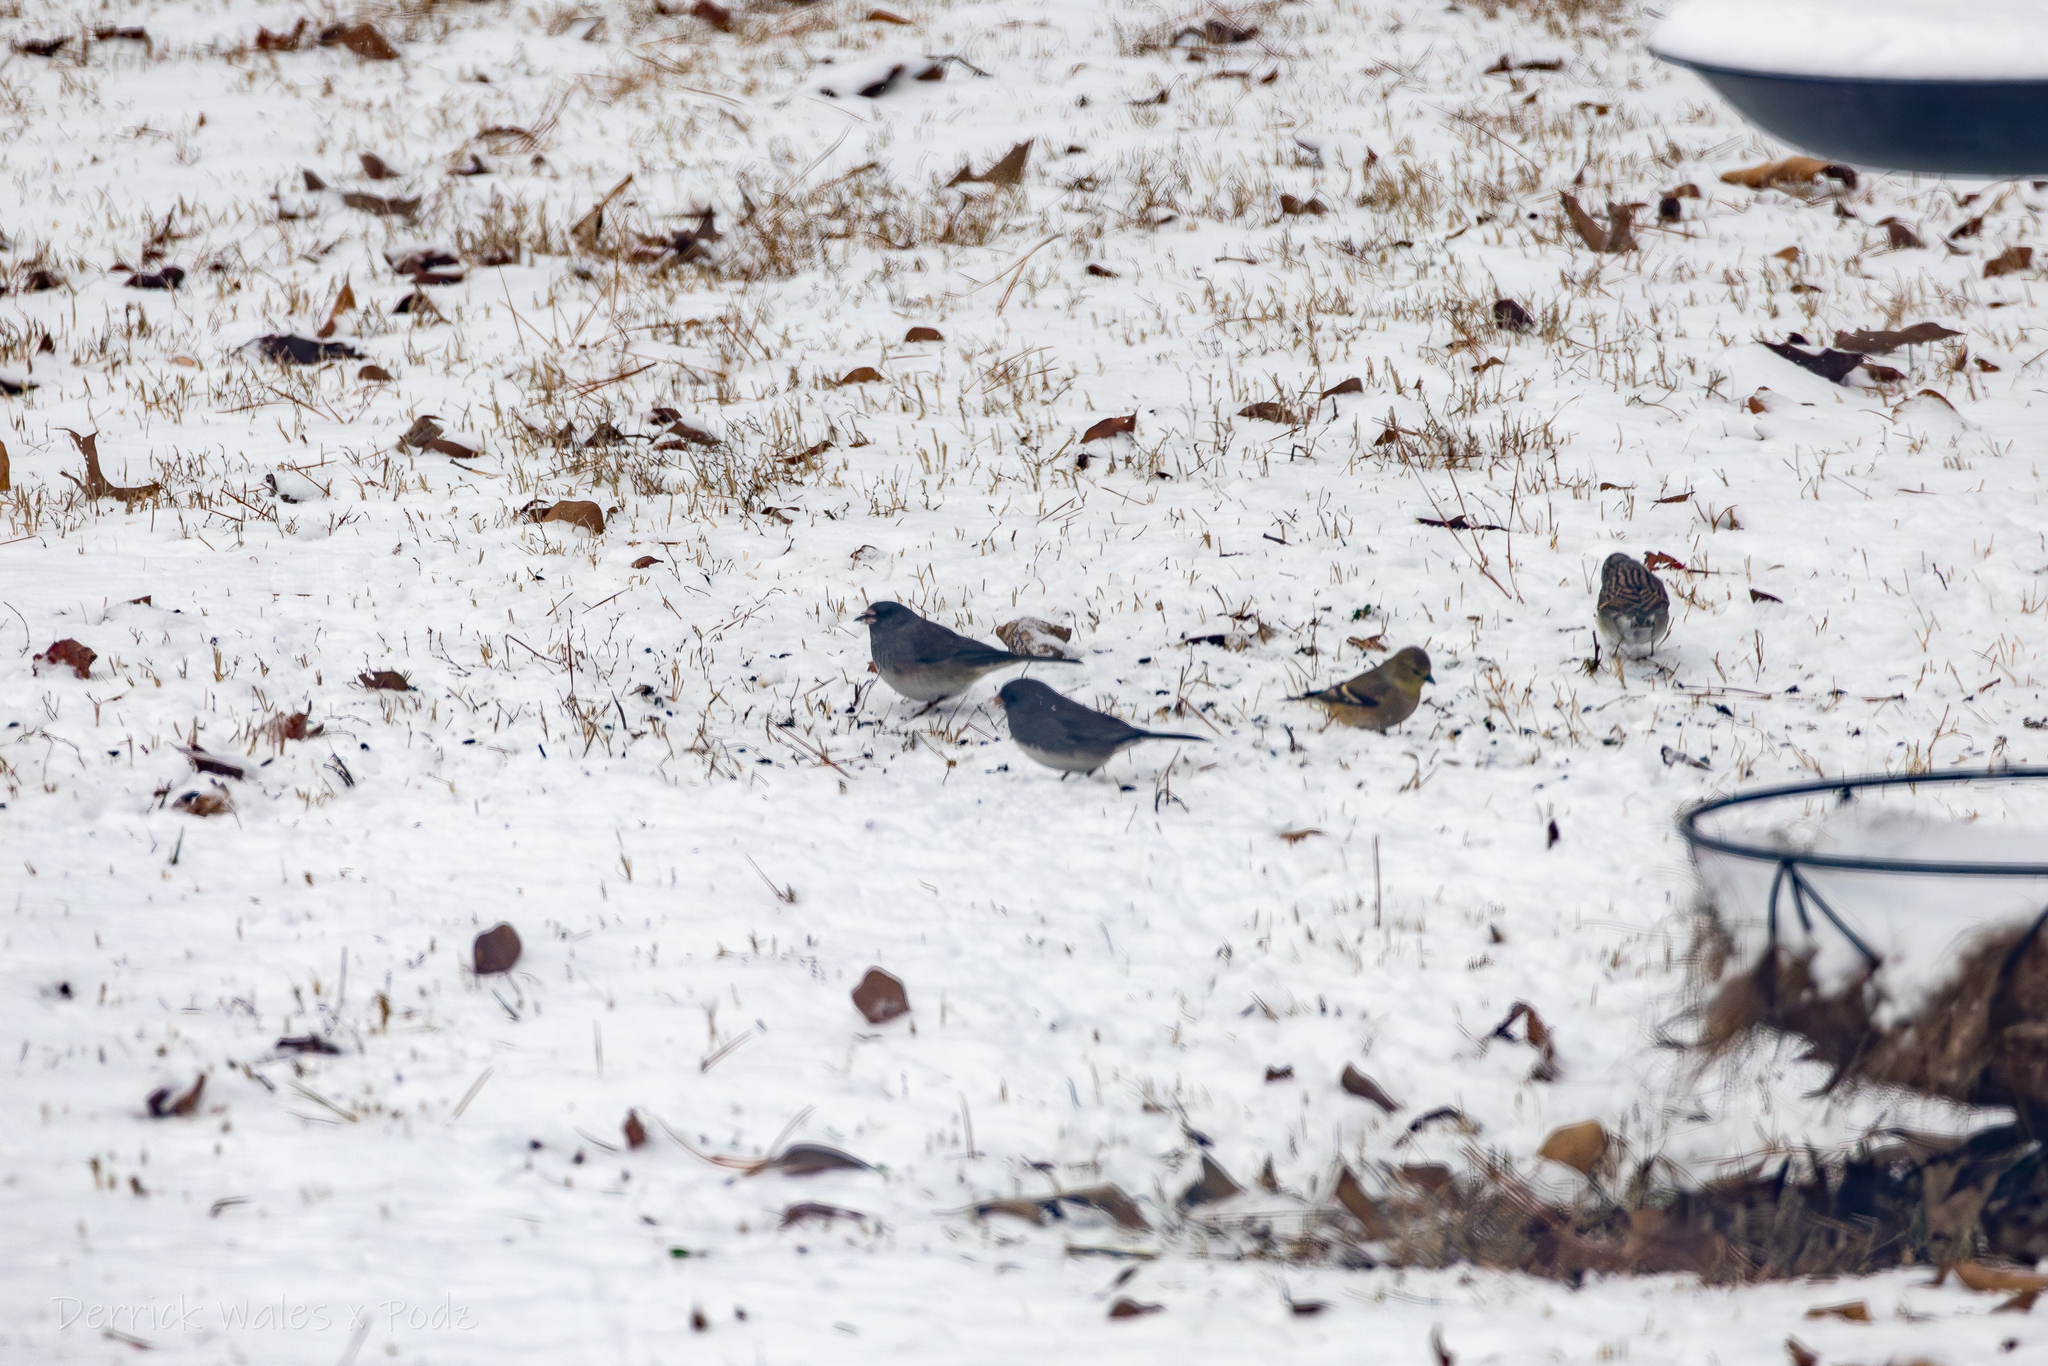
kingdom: Animalia
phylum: Chordata
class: Aves
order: Passeriformes
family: Passerellidae
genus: Junco
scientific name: Junco hyemalis
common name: Dark-eyed junco
